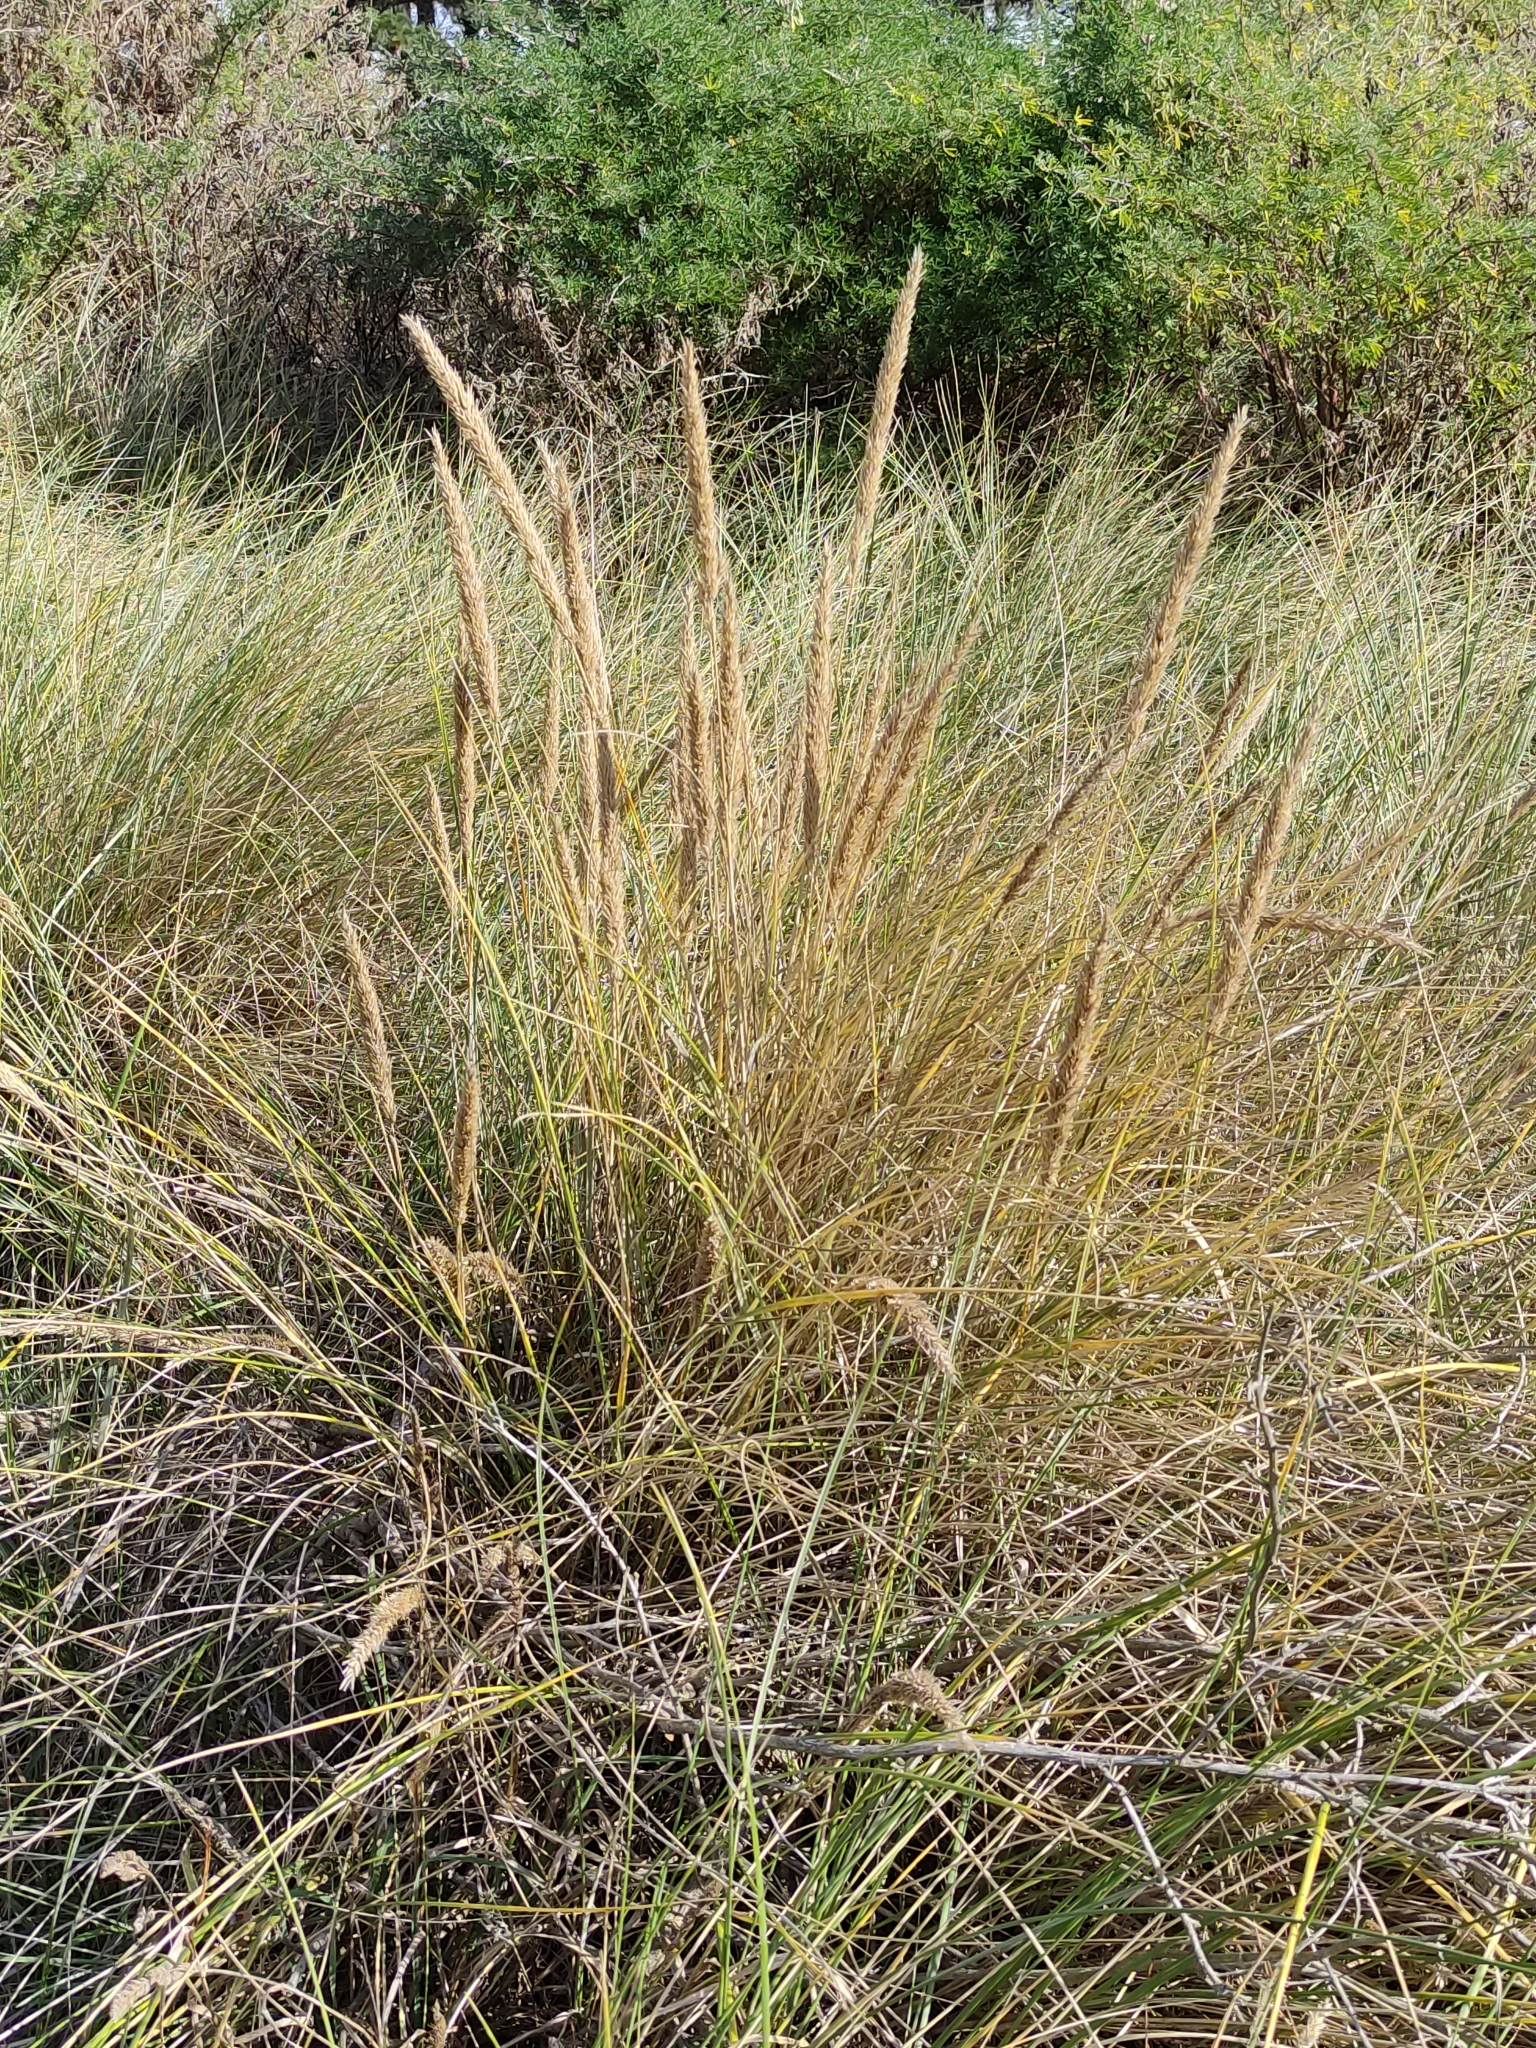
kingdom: Plantae
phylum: Tracheophyta
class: Liliopsida
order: Poales
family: Poaceae
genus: Calamagrostis
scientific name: Calamagrostis arenaria
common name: European beachgrass
